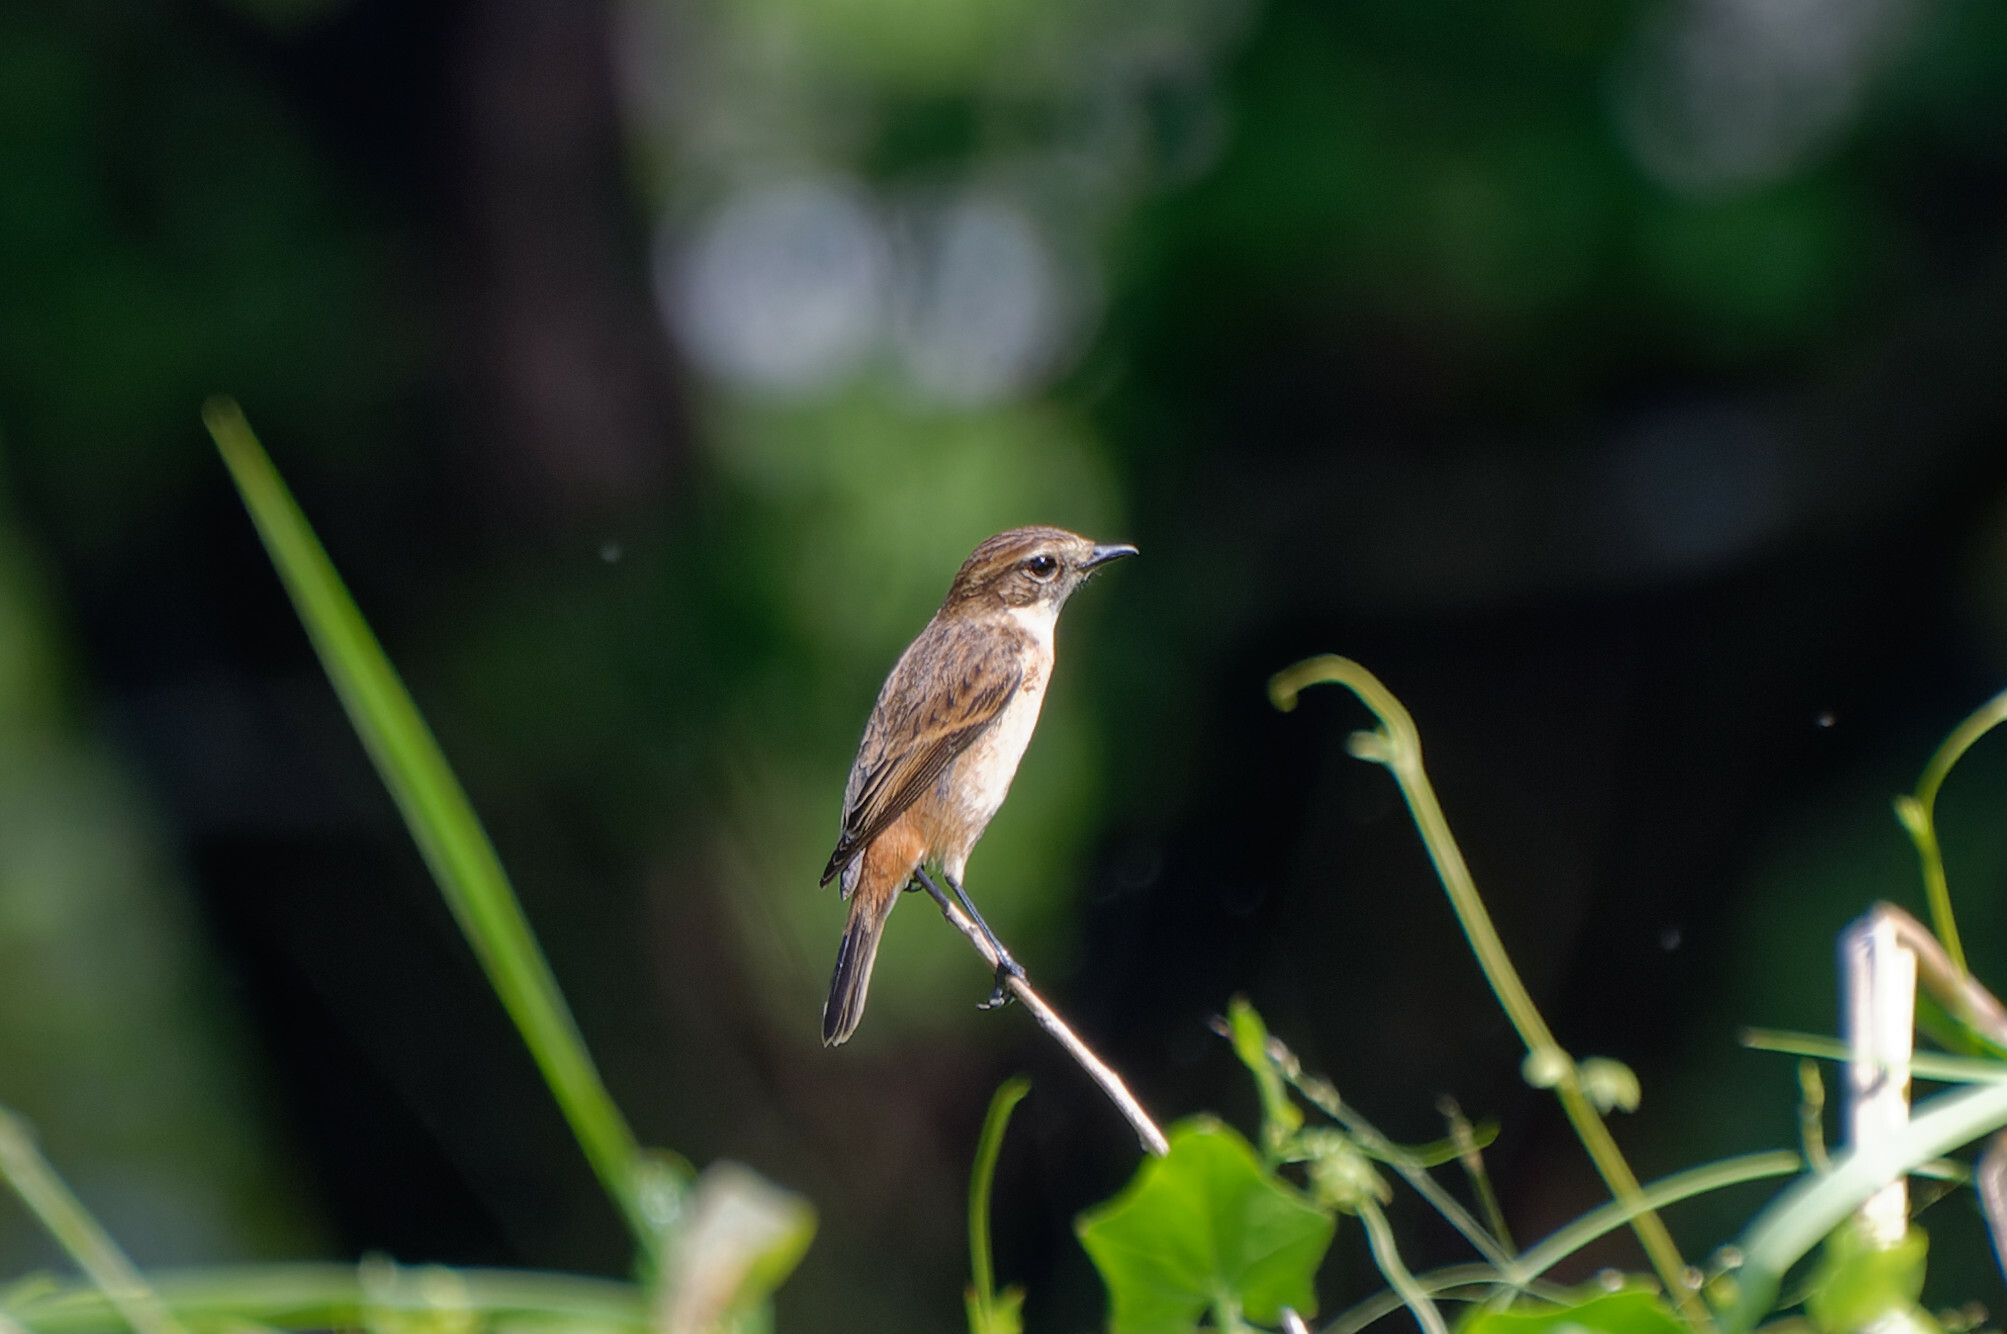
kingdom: Animalia
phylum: Chordata
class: Aves
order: Passeriformes
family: Muscicapidae
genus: Saxicola
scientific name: Saxicola stejnegeri
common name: Stejneger's stonechat
